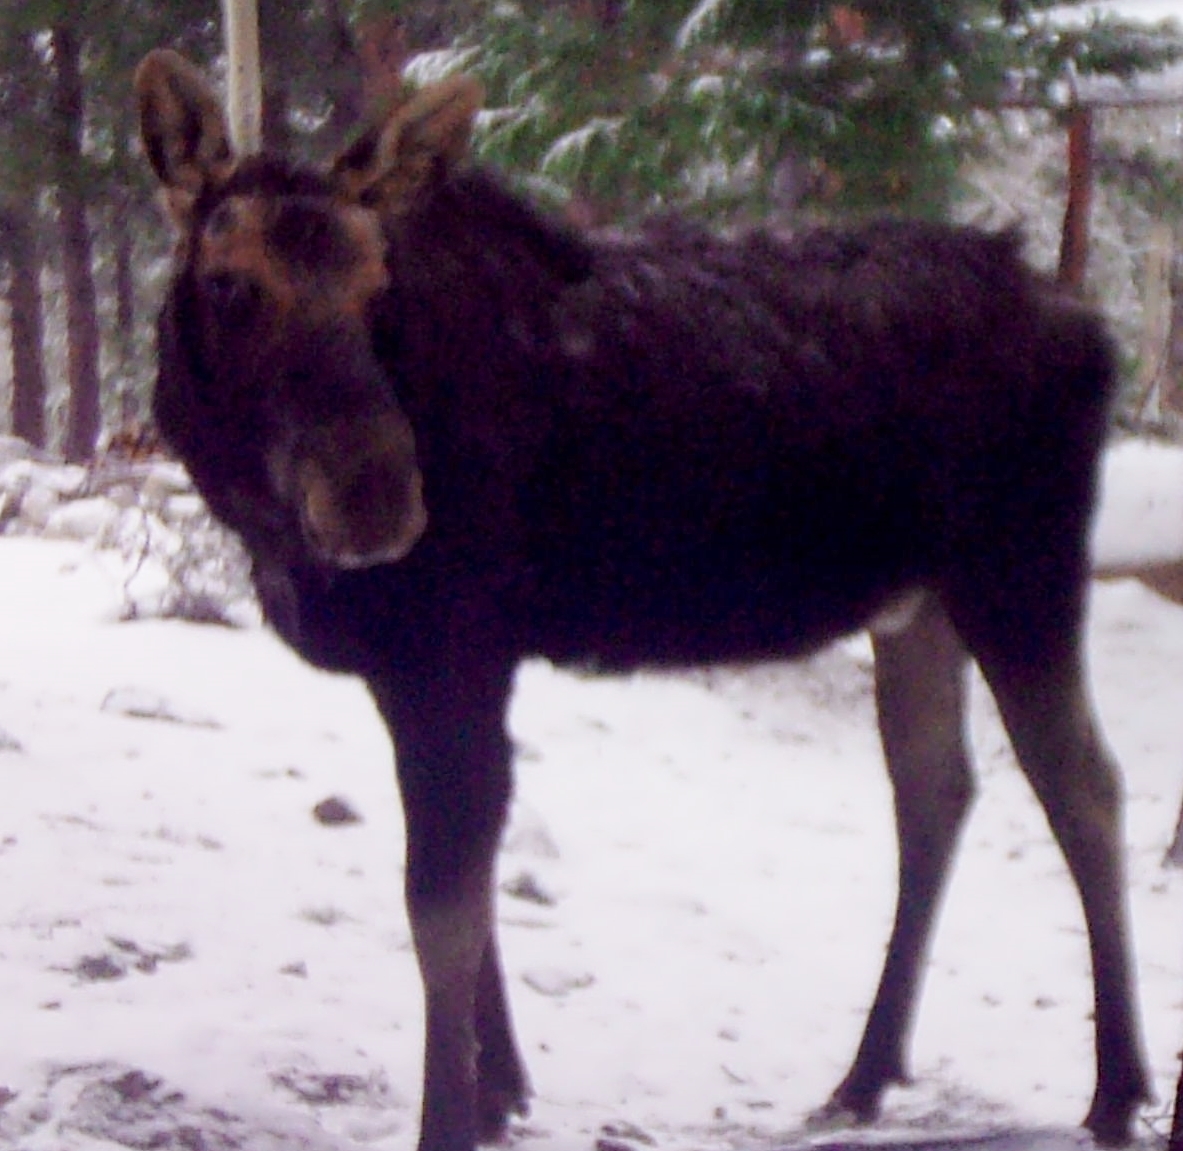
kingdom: Animalia
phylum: Chordata
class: Mammalia
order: Artiodactyla
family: Cervidae
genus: Alces
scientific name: Alces alces
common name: Moose
